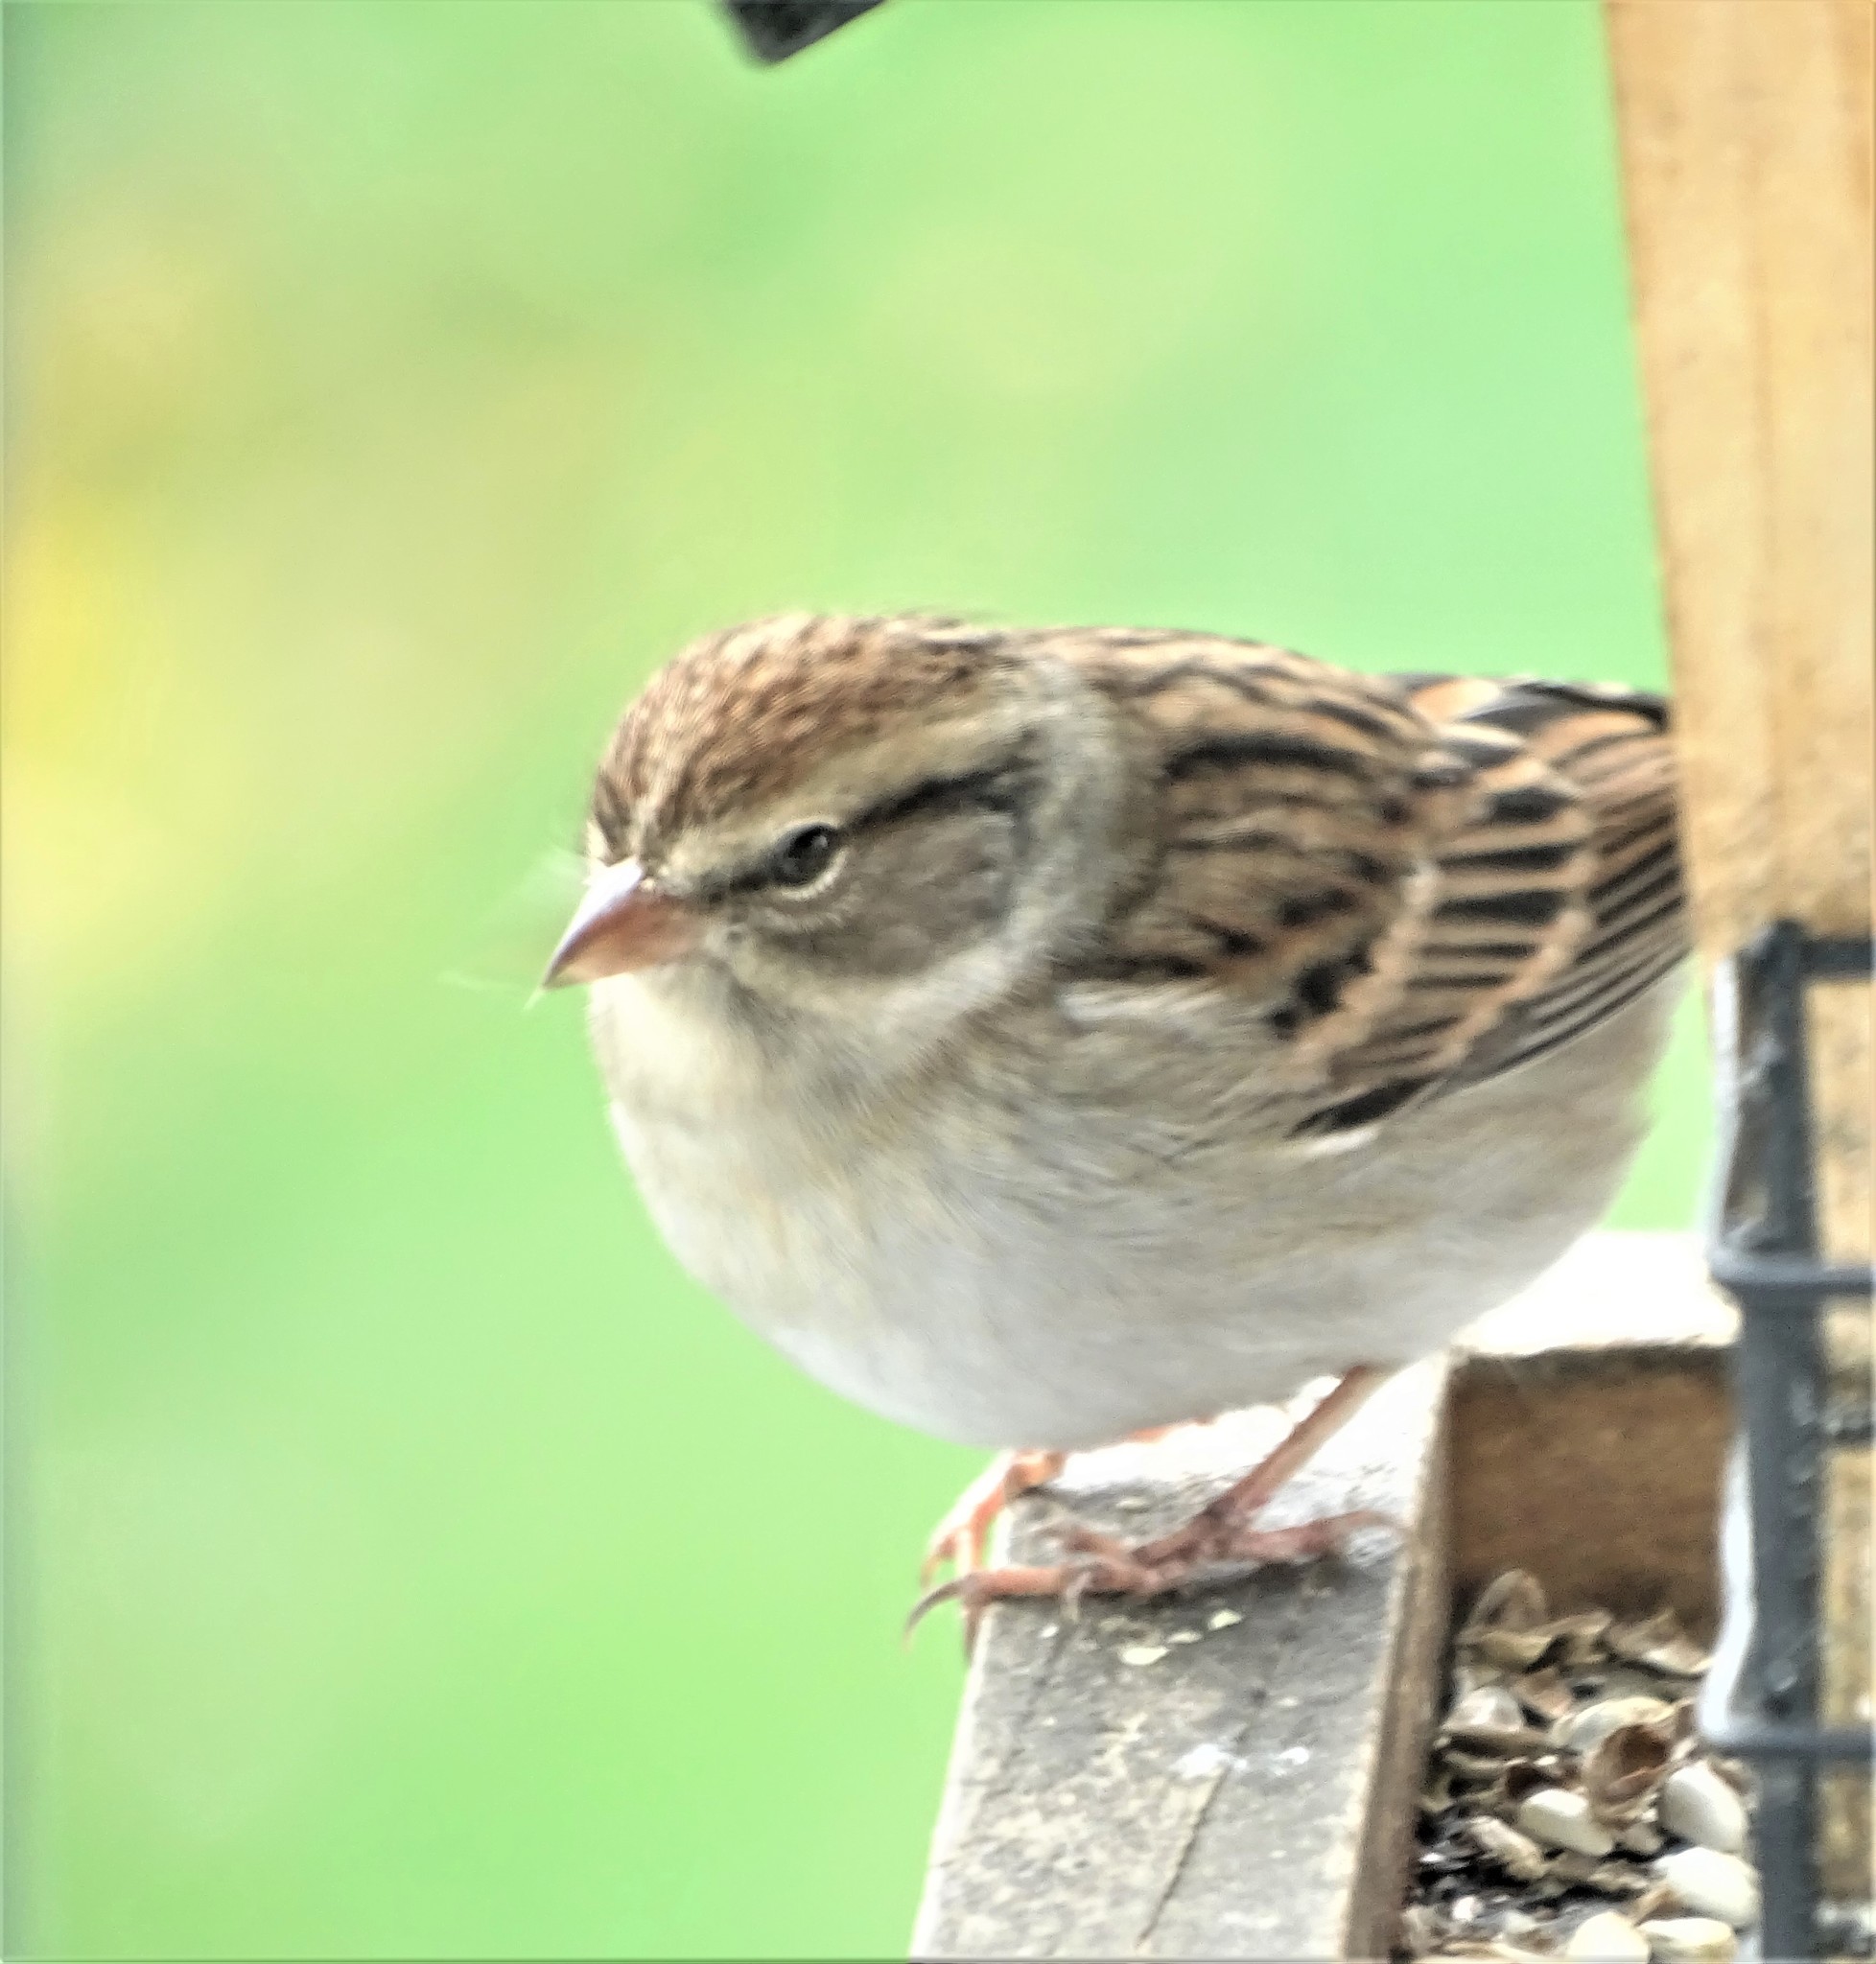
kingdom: Animalia
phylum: Chordata
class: Aves
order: Passeriformes
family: Passerellidae
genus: Spizella
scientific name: Spizella passerina
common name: Chipping sparrow
